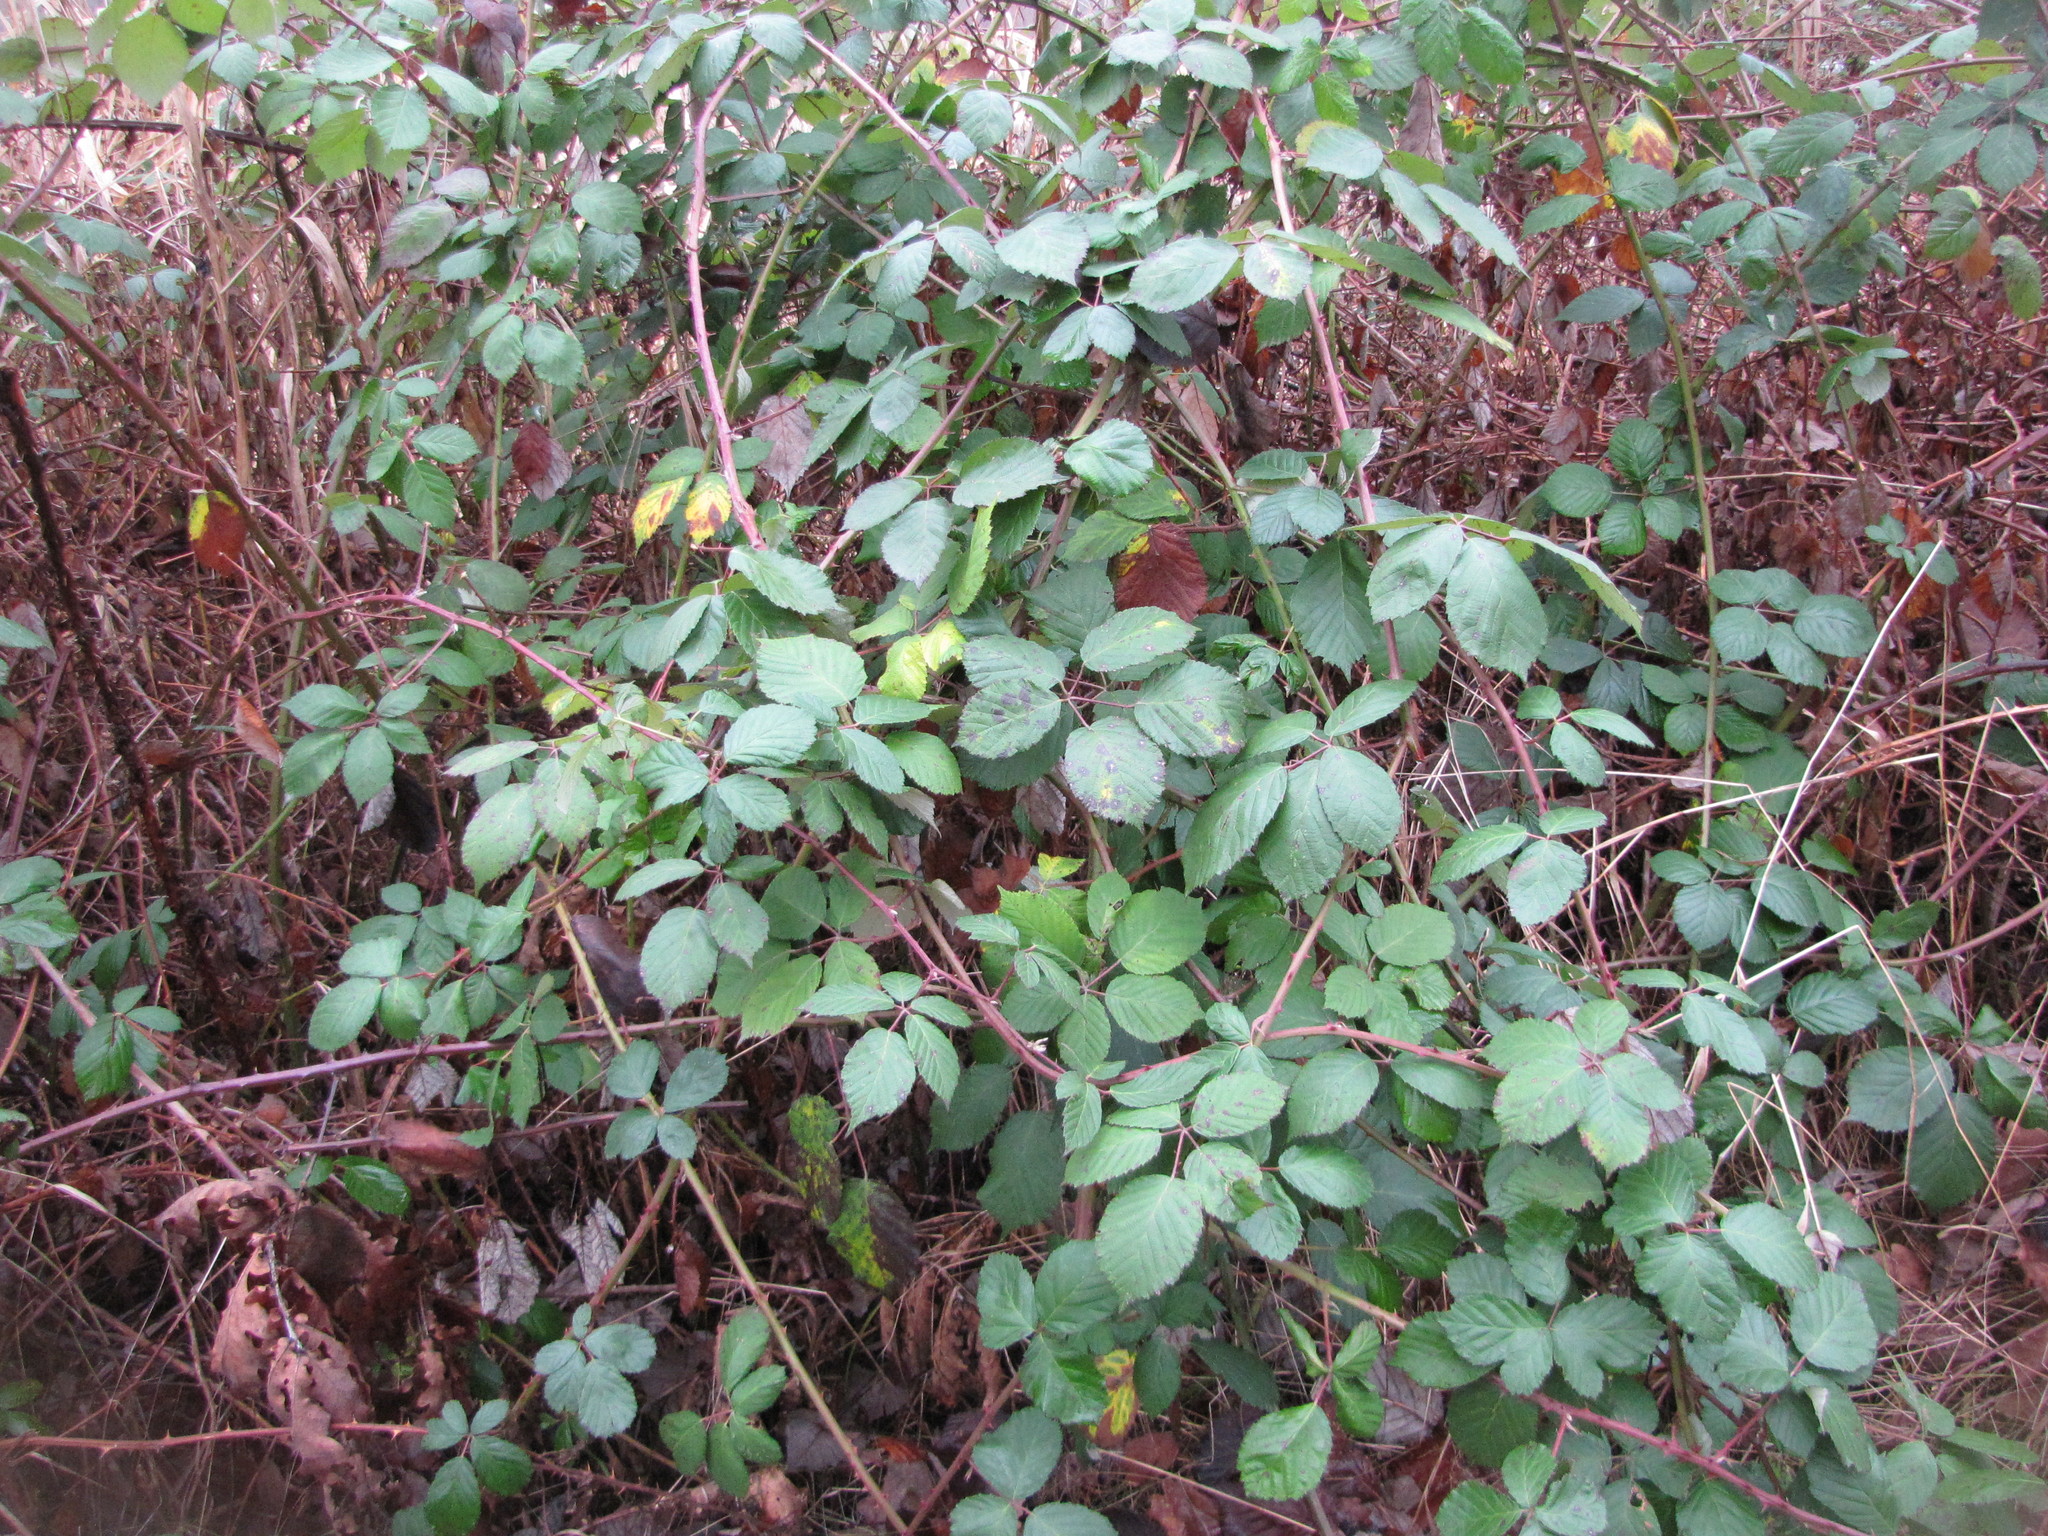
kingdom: Plantae
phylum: Tracheophyta
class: Magnoliopsida
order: Rosales
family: Rosaceae
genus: Rubus
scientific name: Rubus bifrons
